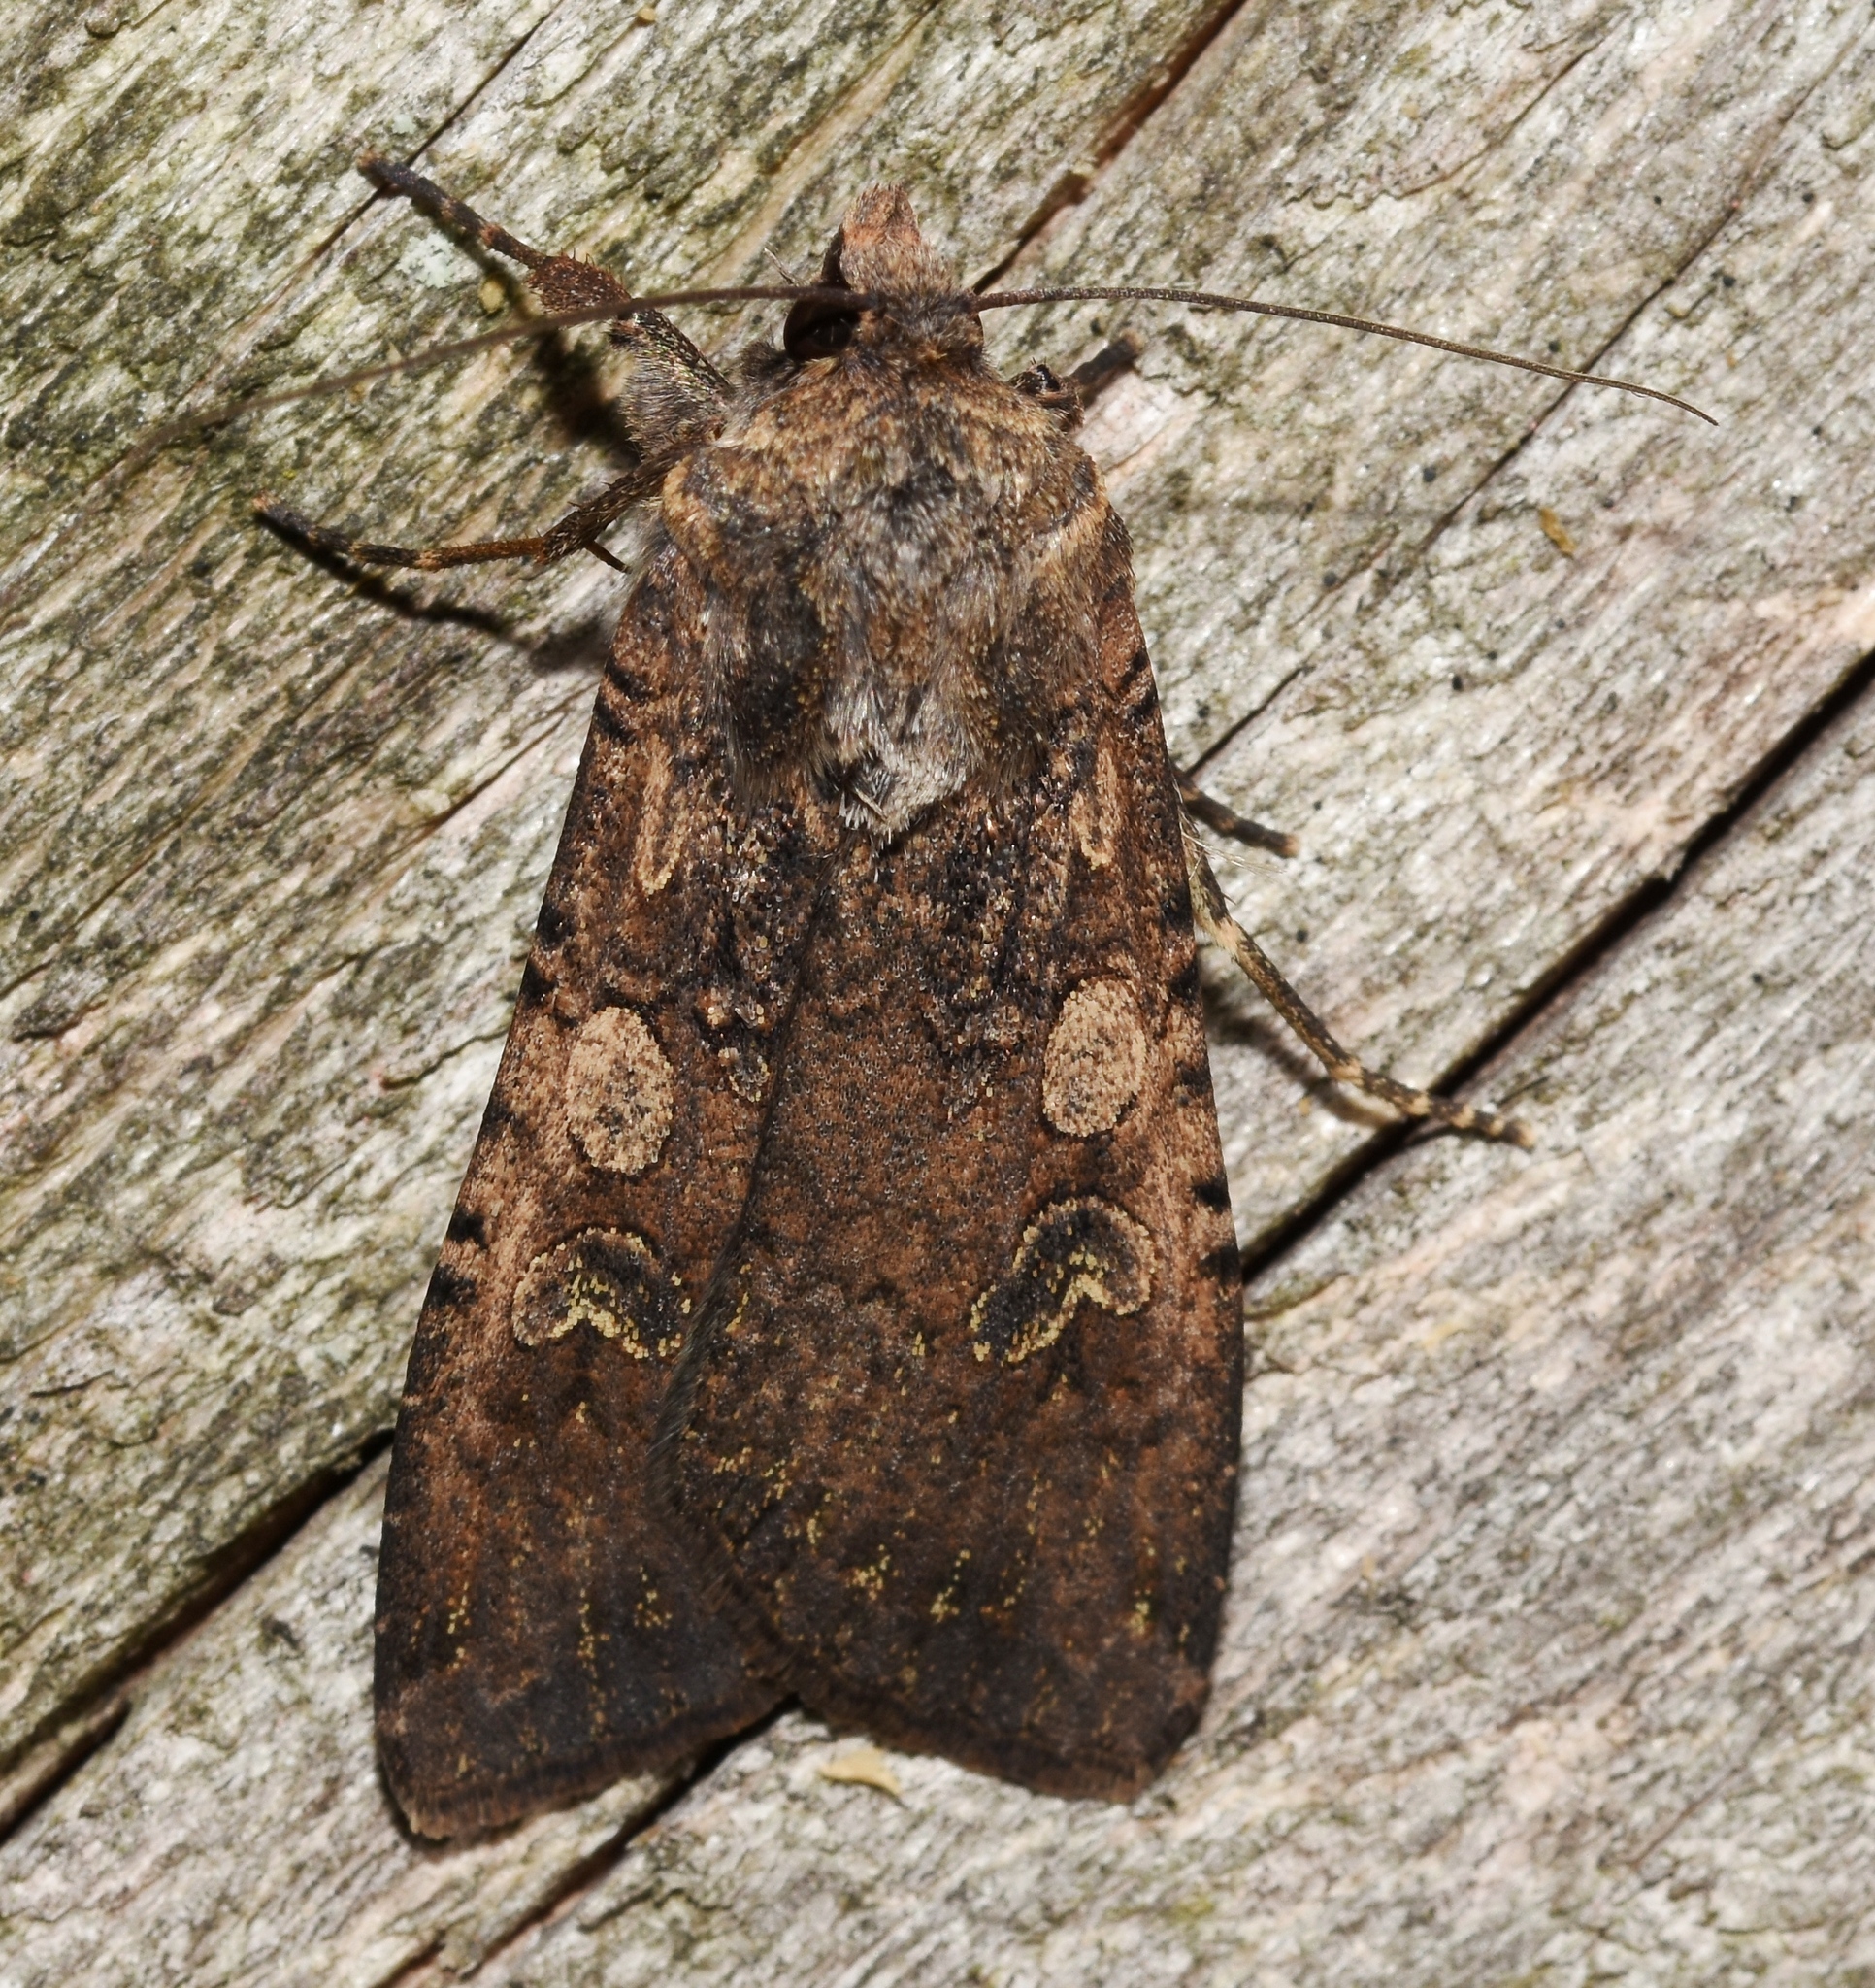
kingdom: Animalia
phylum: Arthropoda
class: Insecta
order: Lepidoptera
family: Noctuidae
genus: Peridroma
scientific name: Peridroma saucia
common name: Pearly underwing
